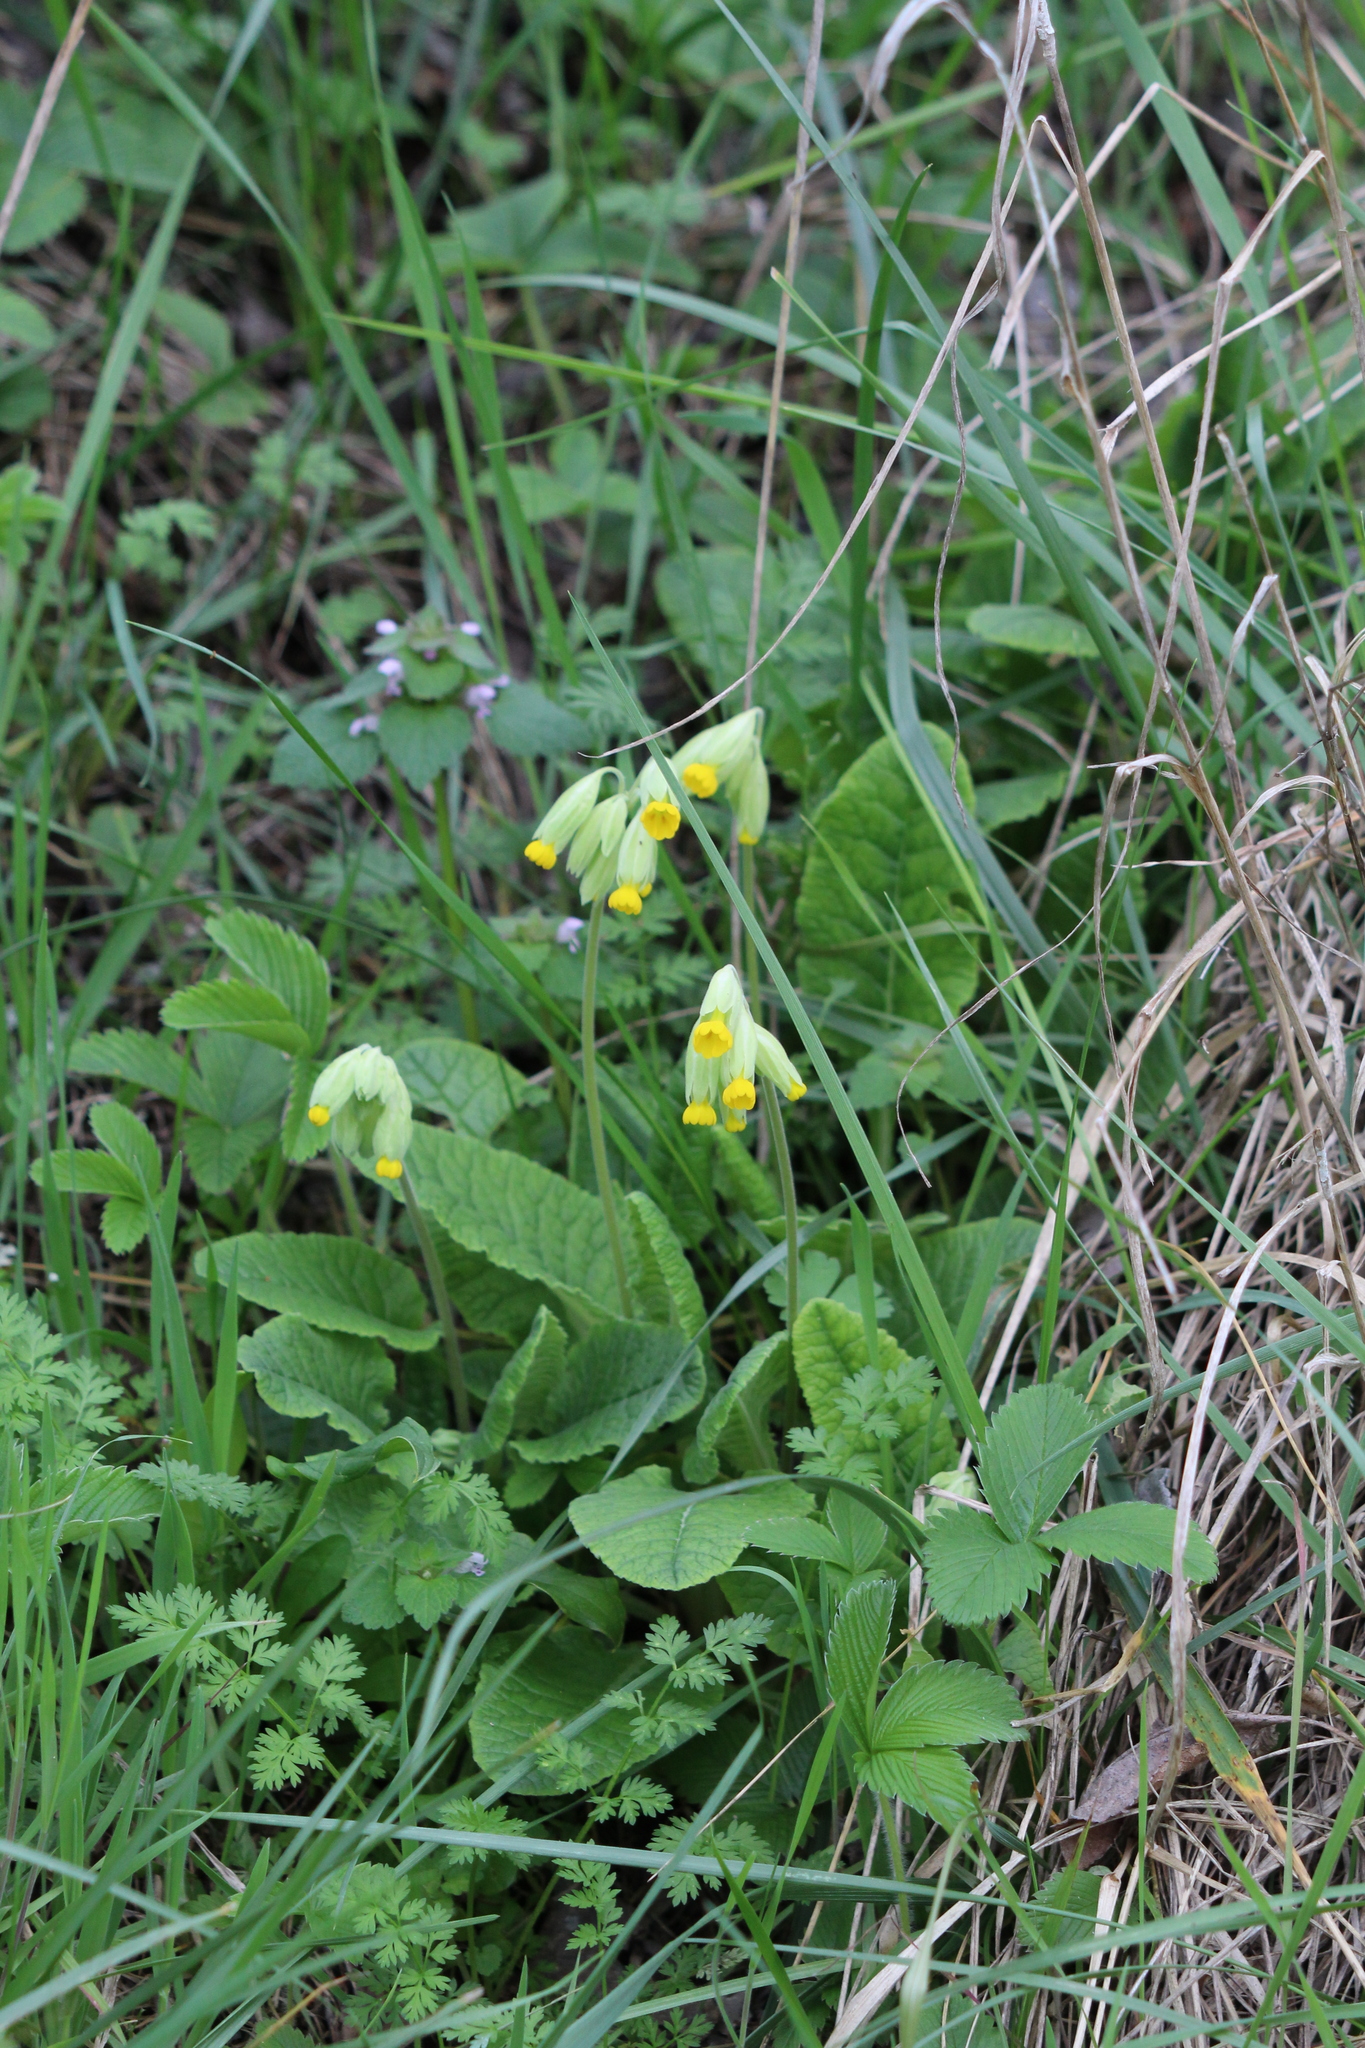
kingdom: Plantae
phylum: Tracheophyta
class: Magnoliopsida
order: Ericales
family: Primulaceae
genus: Primula
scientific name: Primula veris
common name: Cowslip
